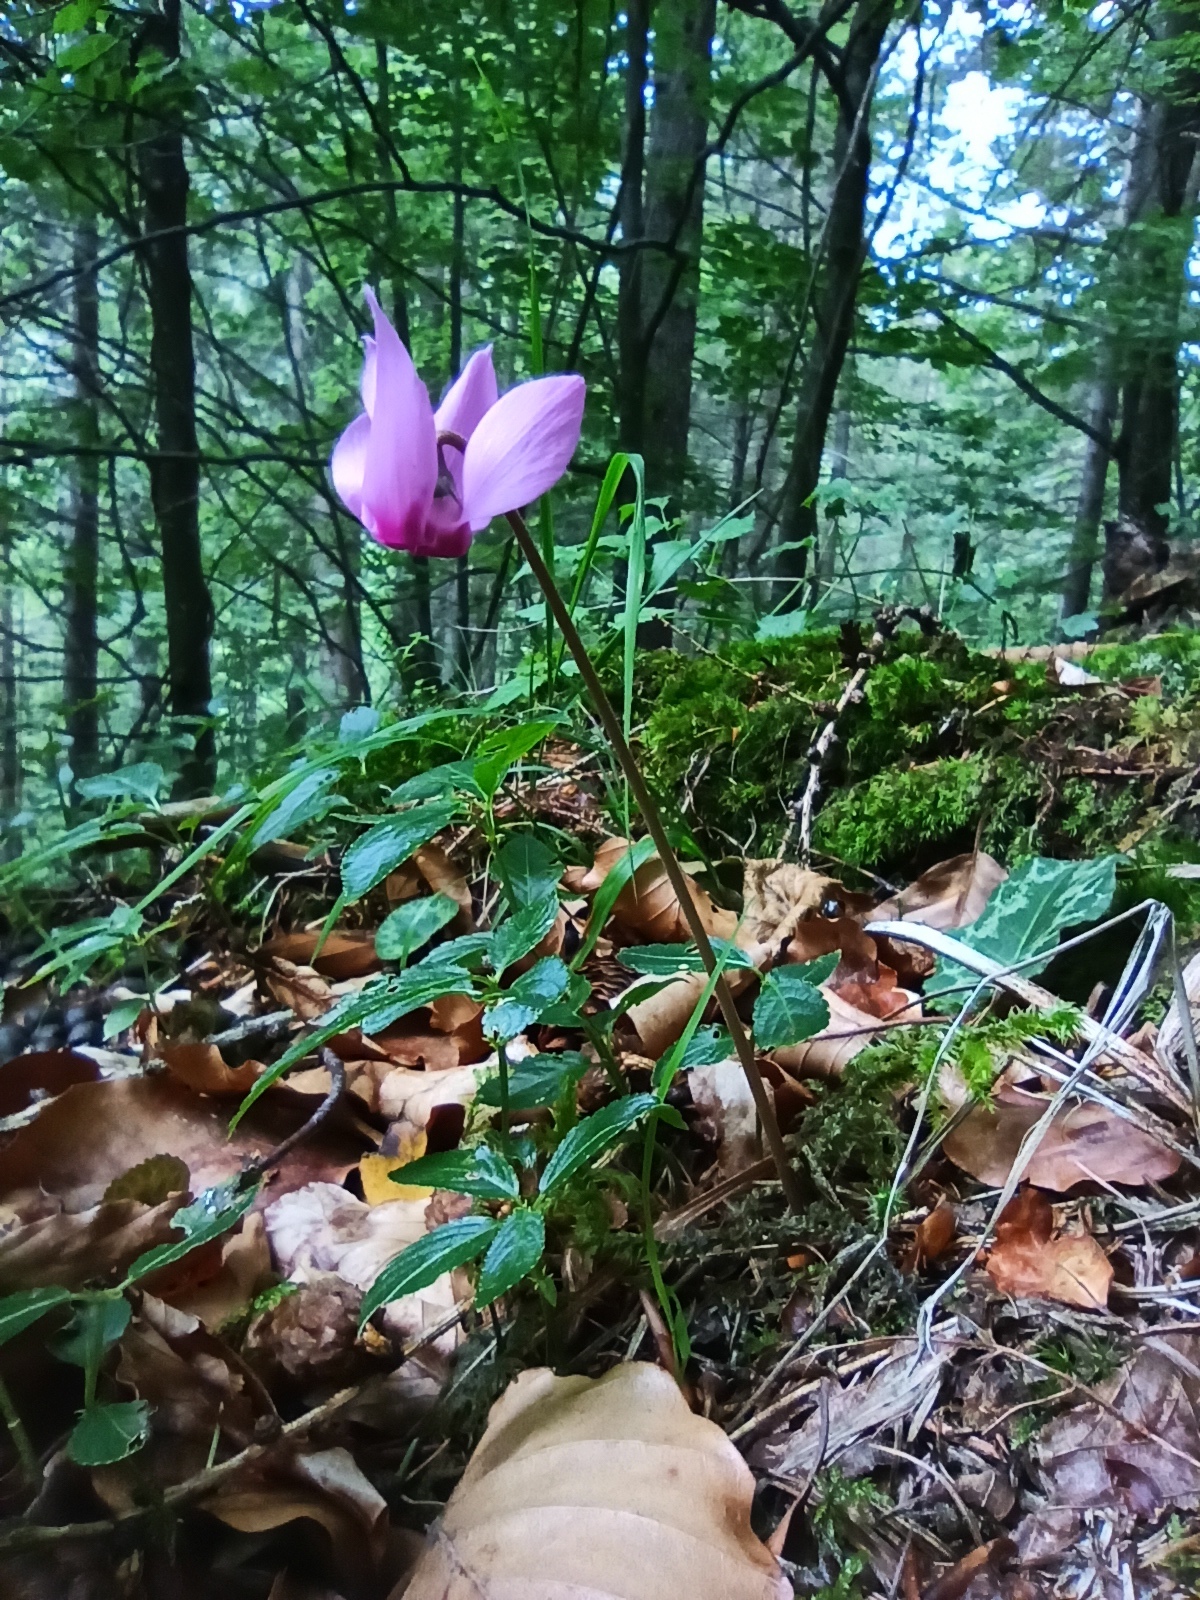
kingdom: Plantae
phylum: Tracheophyta
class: Magnoliopsida
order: Ericales
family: Primulaceae
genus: Cyclamen
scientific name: Cyclamen purpurascens
